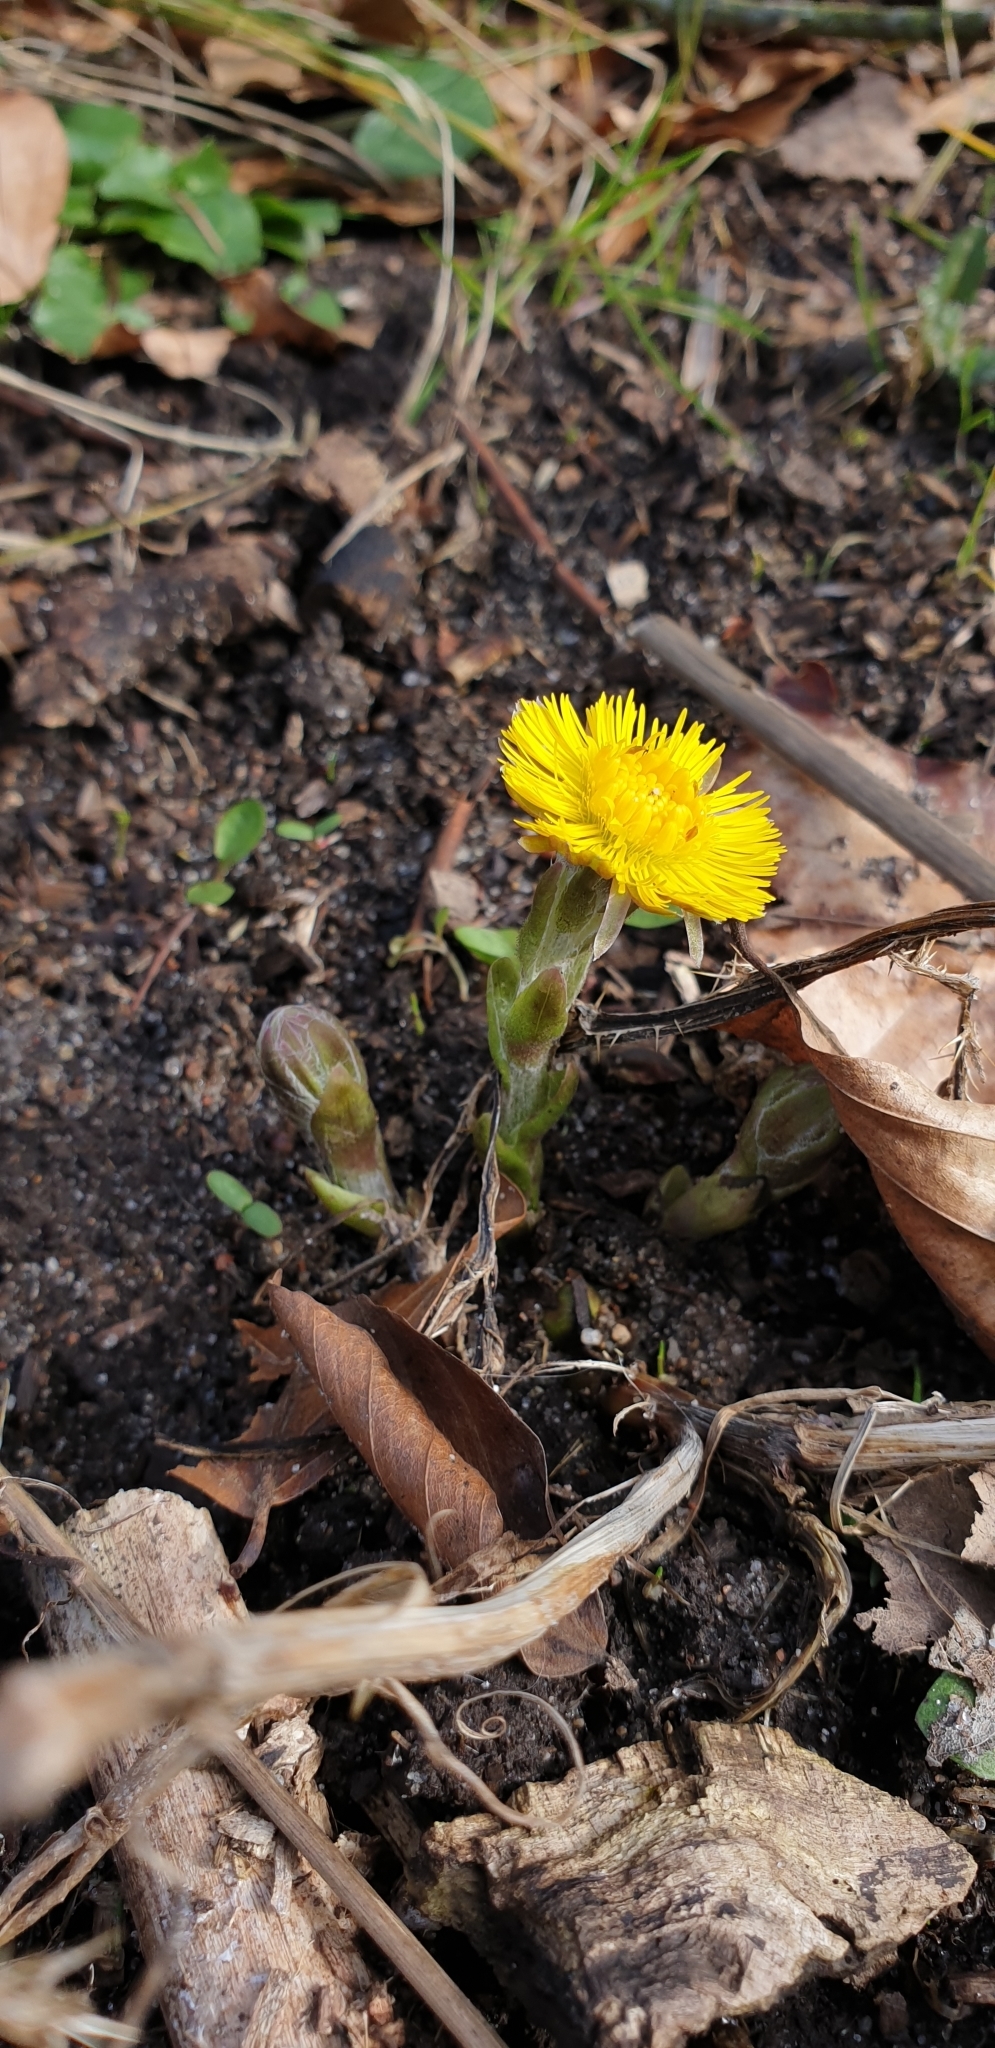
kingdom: Plantae
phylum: Tracheophyta
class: Magnoliopsida
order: Asterales
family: Asteraceae
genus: Tussilago
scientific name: Tussilago farfara
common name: Coltsfoot
